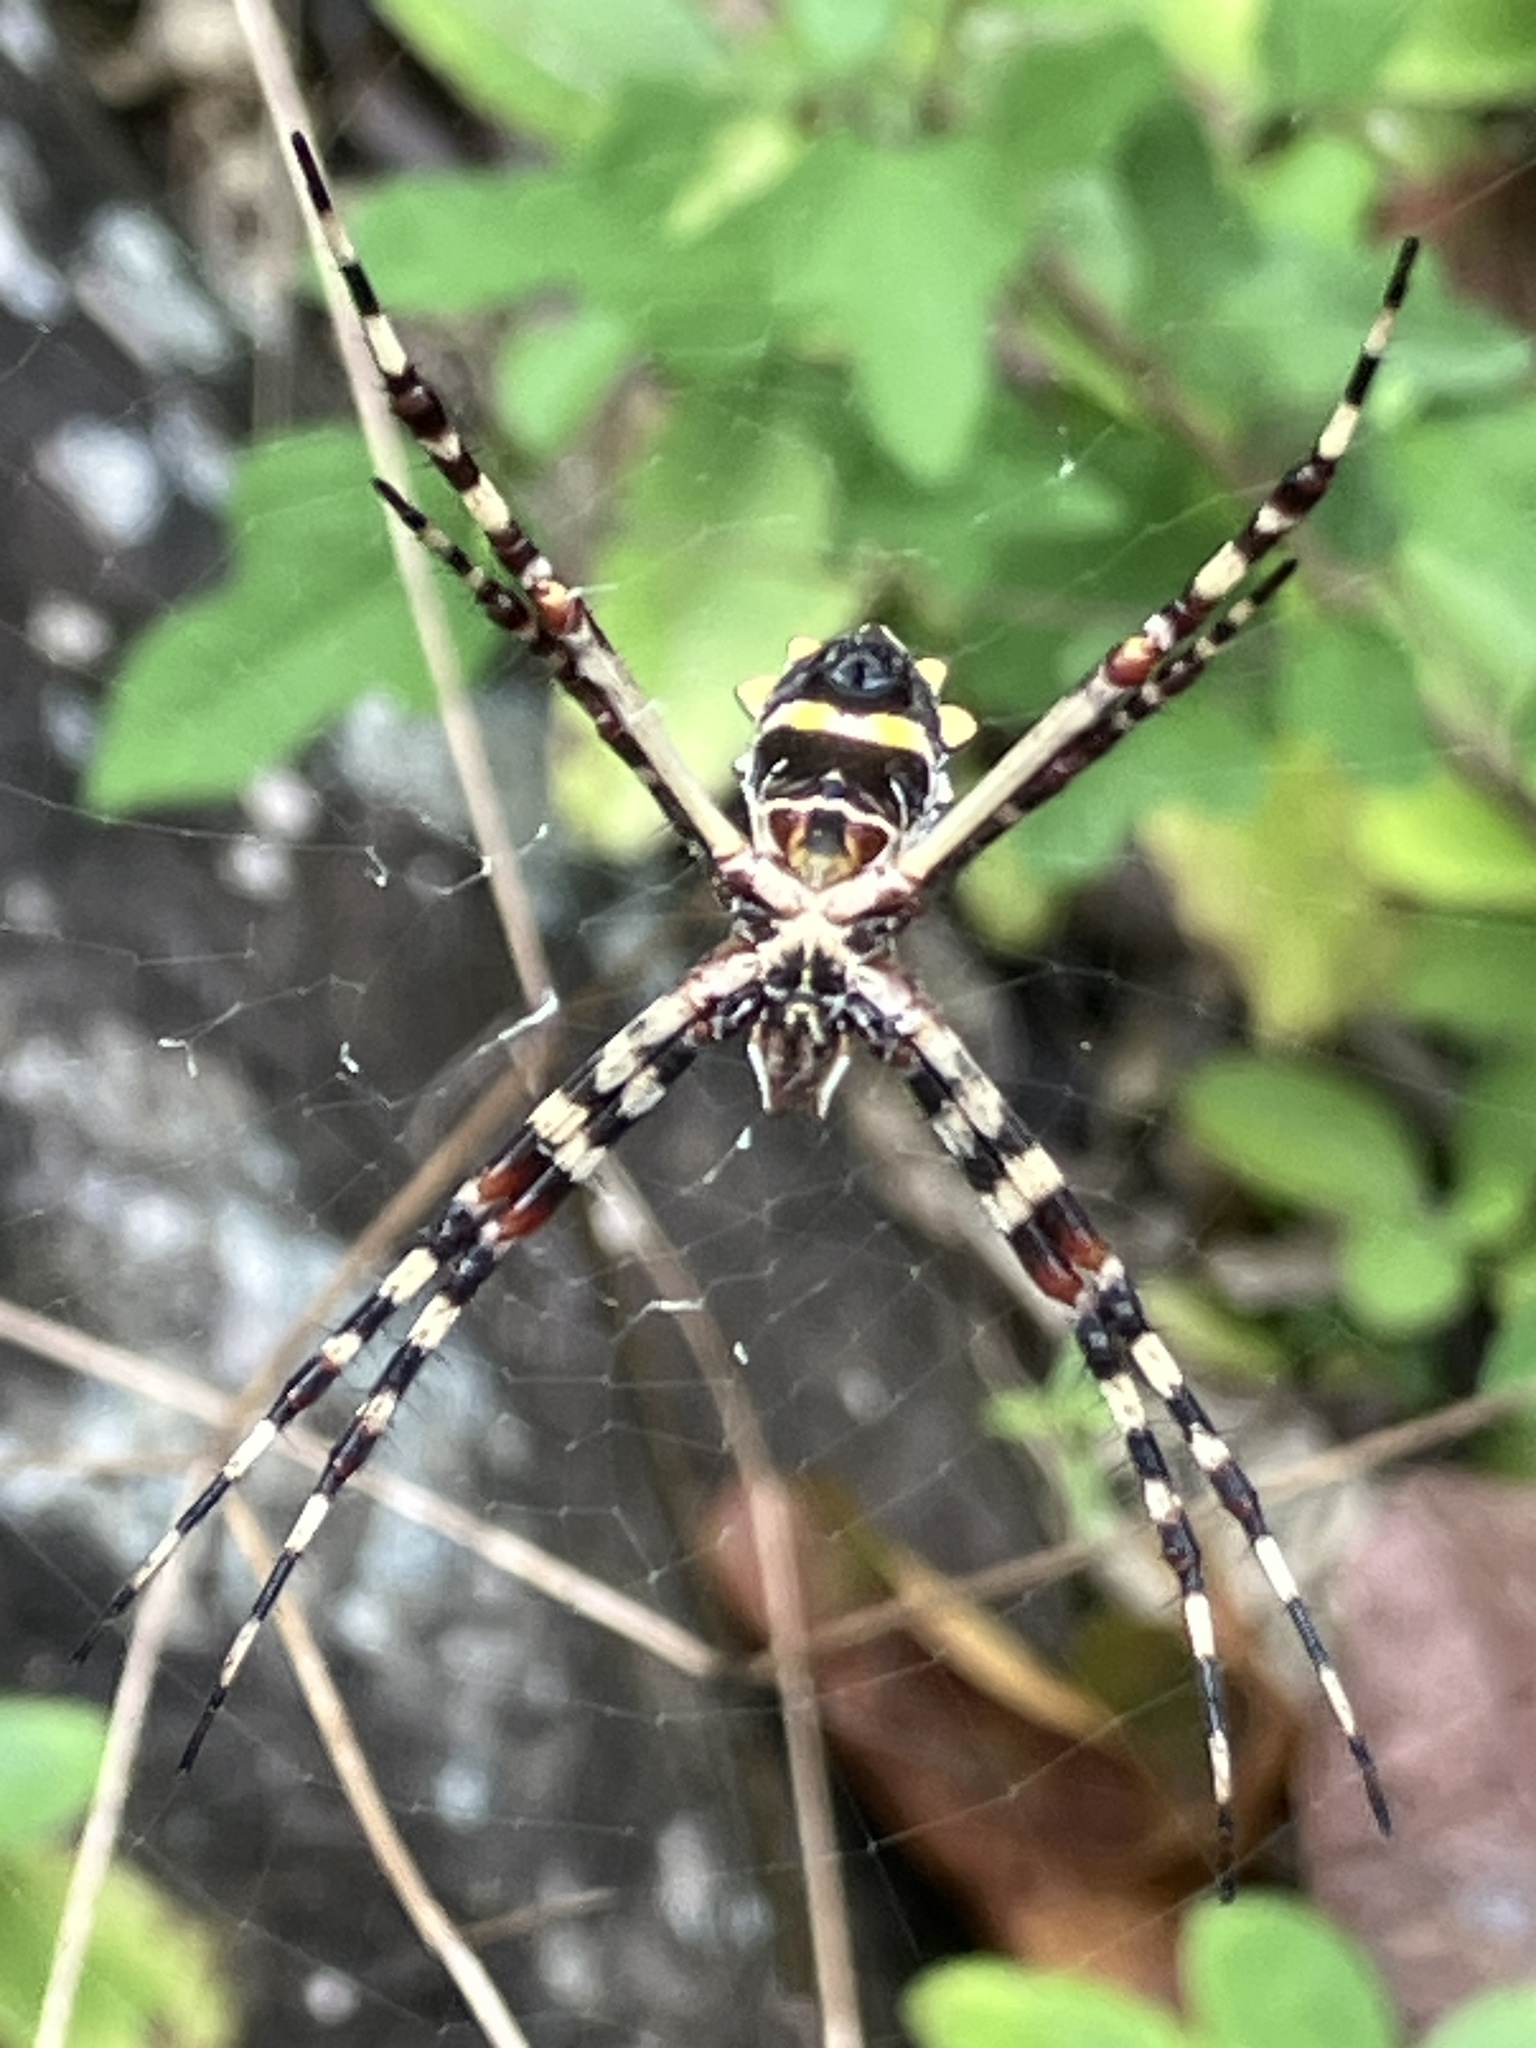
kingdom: Animalia
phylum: Arthropoda
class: Arachnida
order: Araneae
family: Araneidae
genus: Argiope
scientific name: Argiope argentata
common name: Orb weavers
